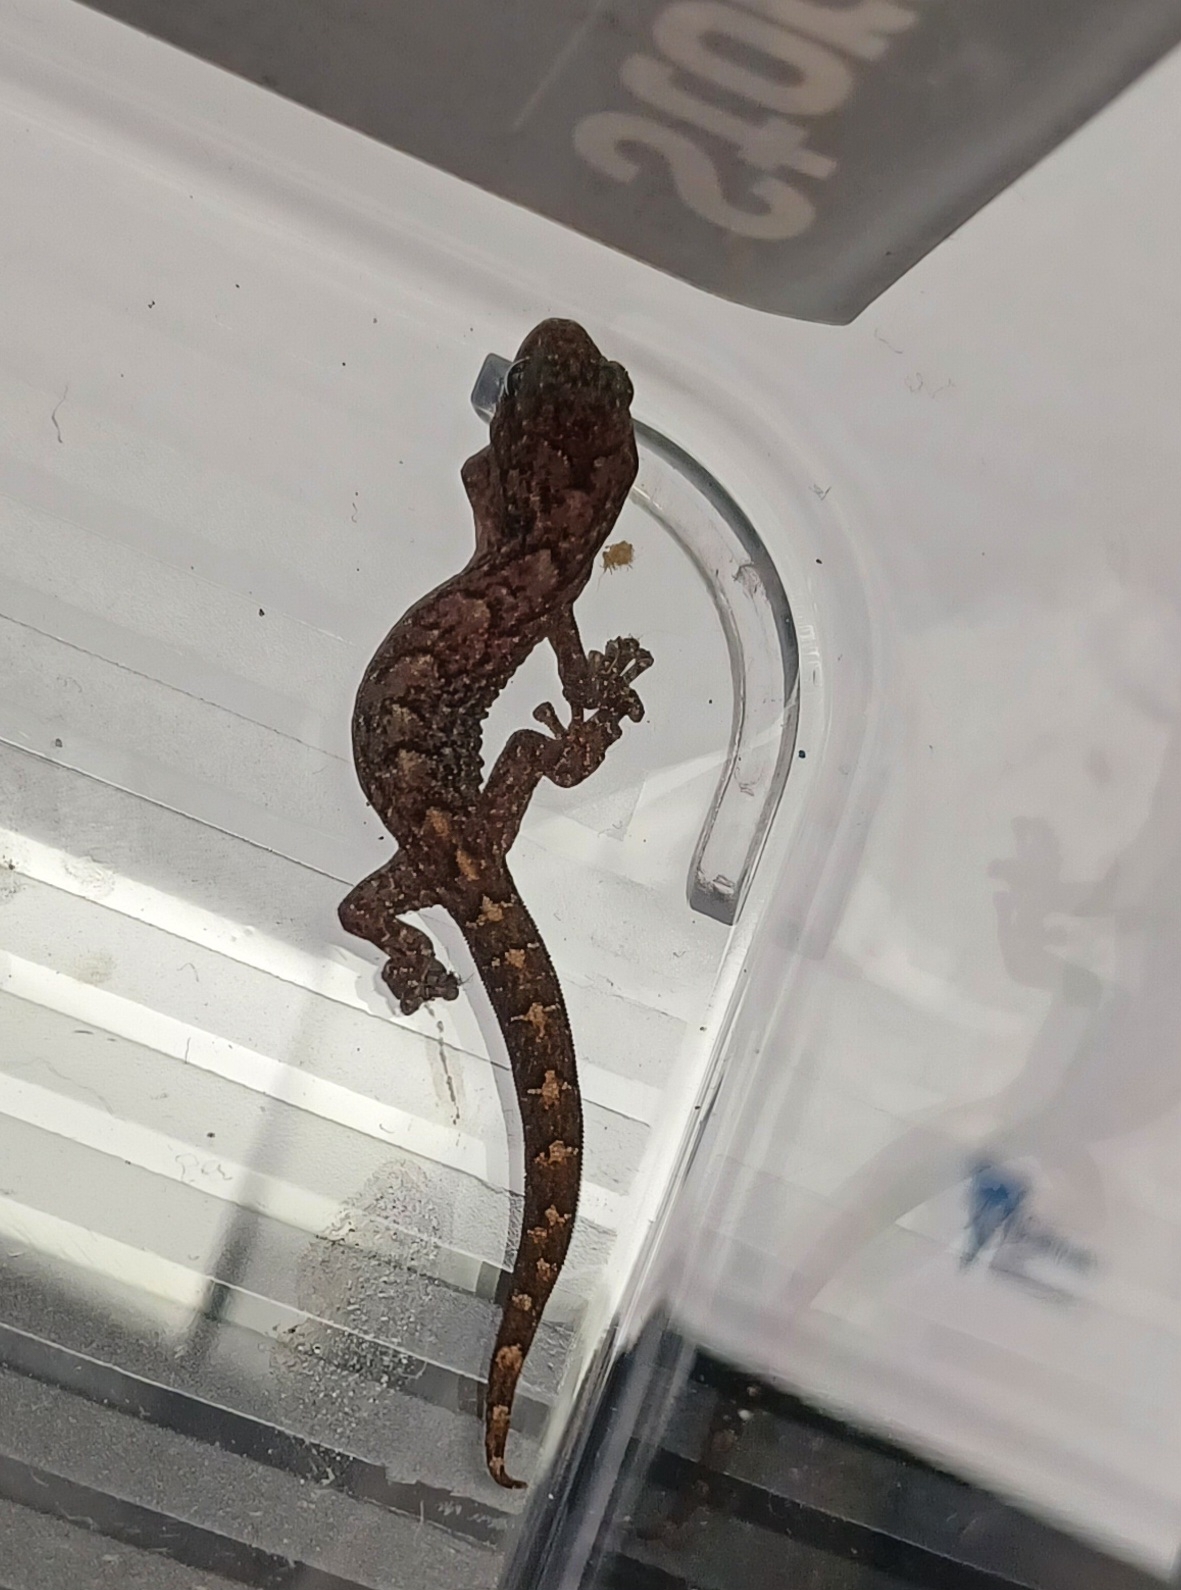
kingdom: Animalia
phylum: Chordata
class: Squamata
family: Gekkonidae
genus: Christinus
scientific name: Christinus marmoratus
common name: Marbled gecko
